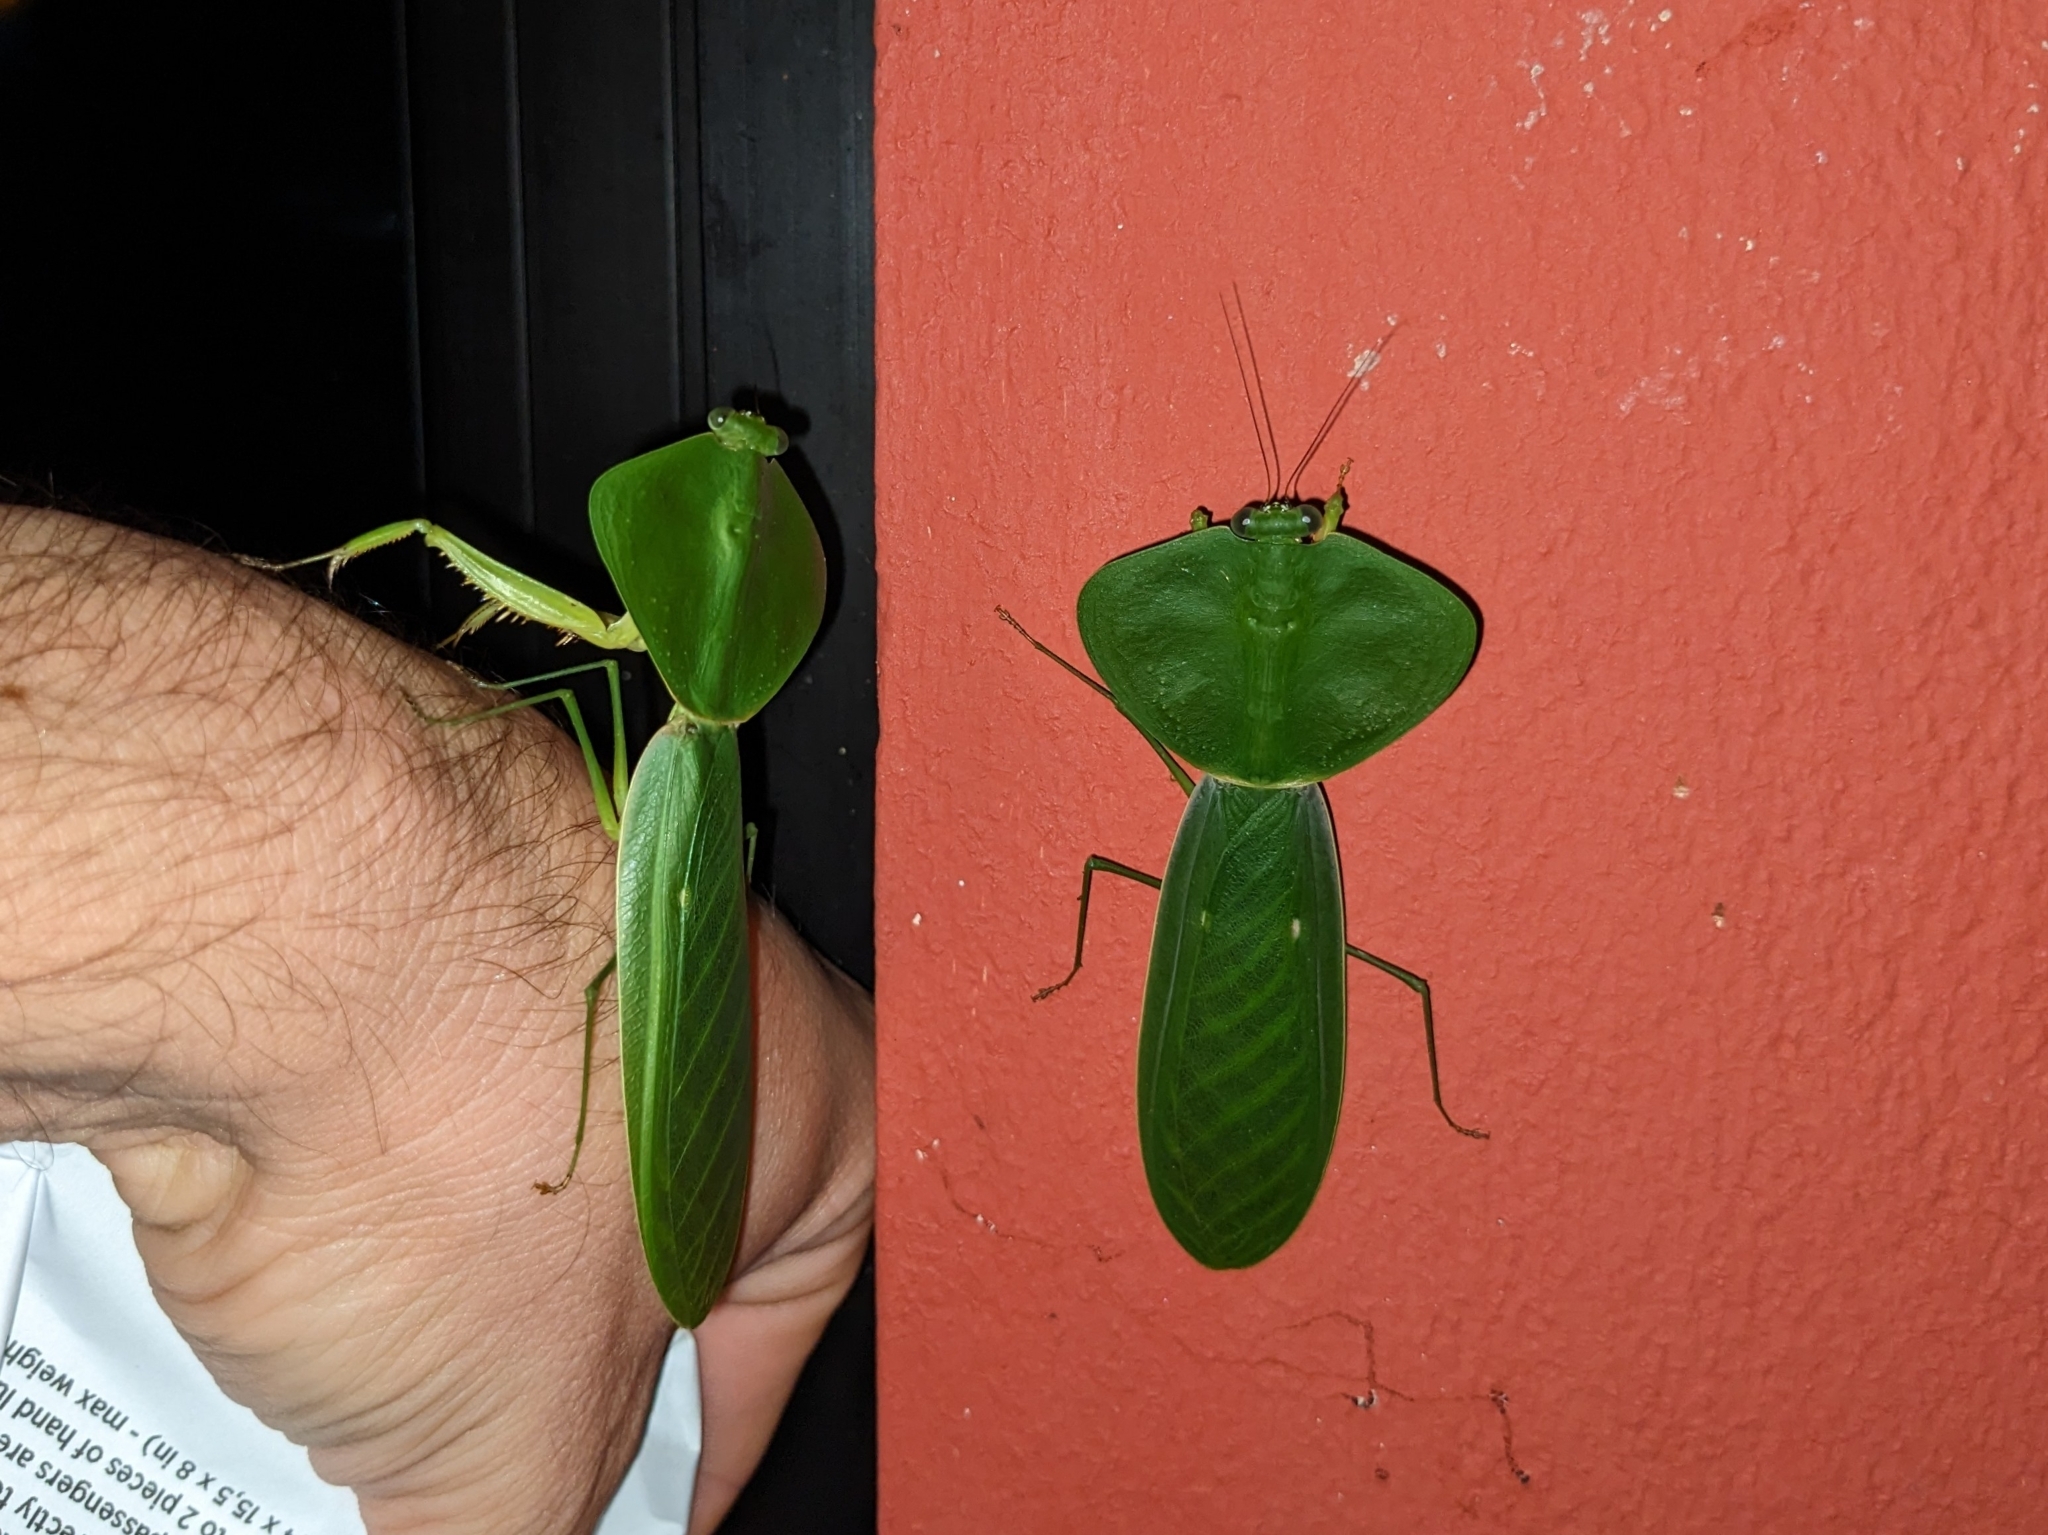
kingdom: Animalia
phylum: Arthropoda
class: Insecta
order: Mantodea
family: Mantidae
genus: Choeradodis
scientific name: Choeradodis rhombicollis
